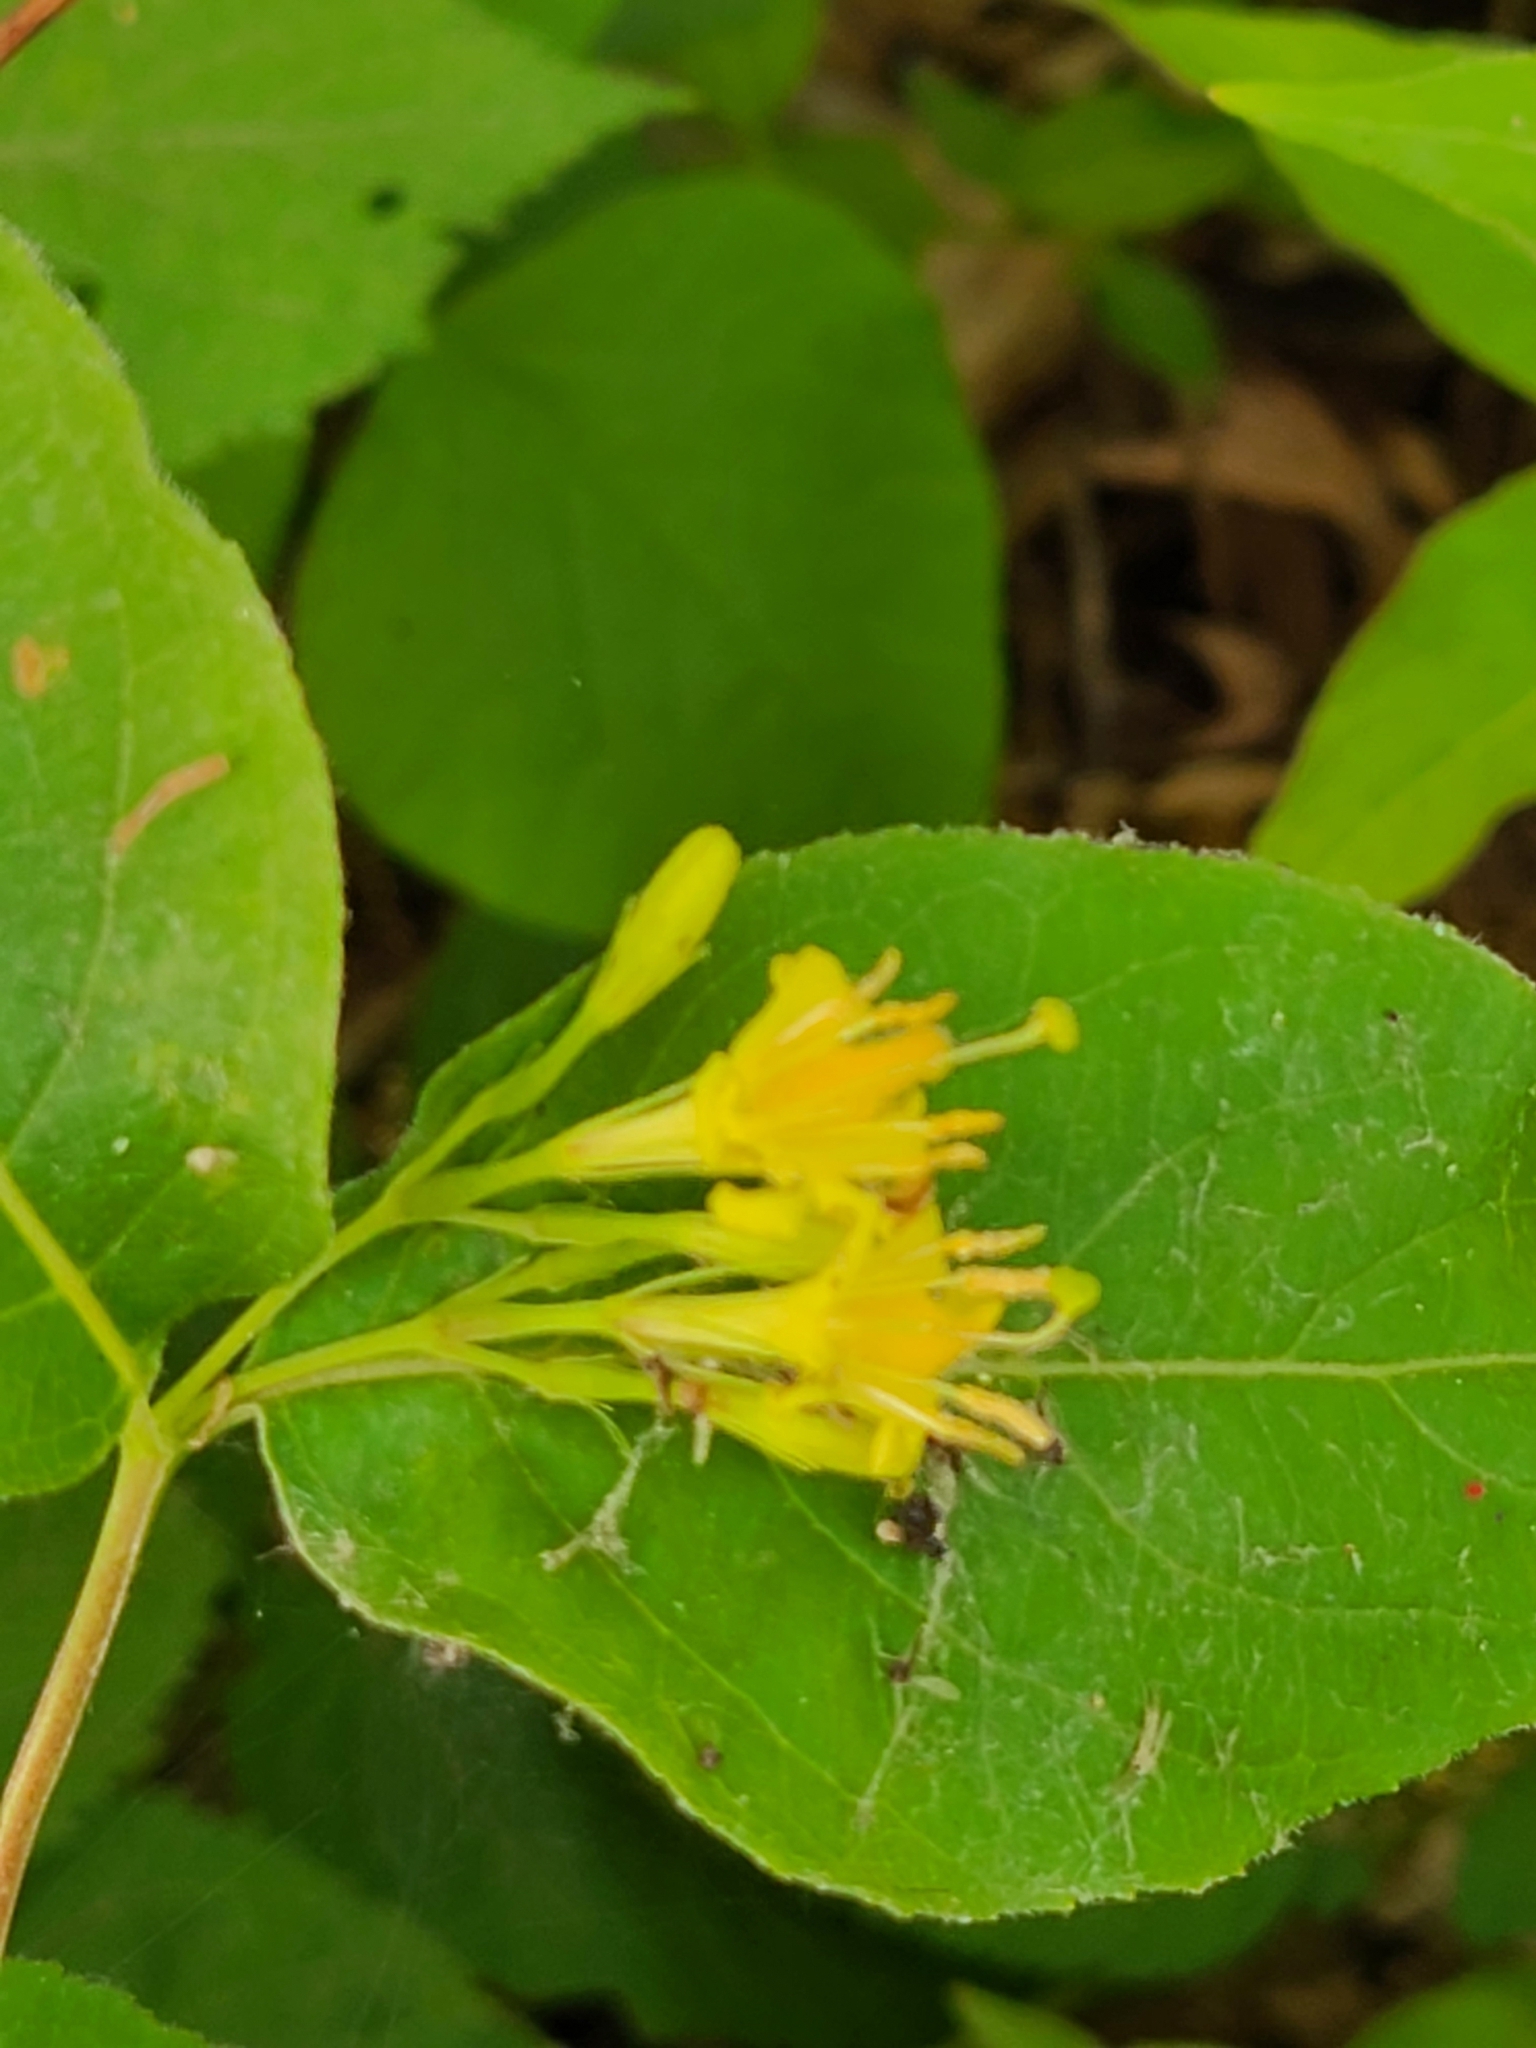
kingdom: Plantae
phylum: Tracheophyta
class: Magnoliopsida
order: Dipsacales
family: Caprifoliaceae
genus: Diervilla
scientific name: Diervilla lonicera
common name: Bush-honeysuckle
